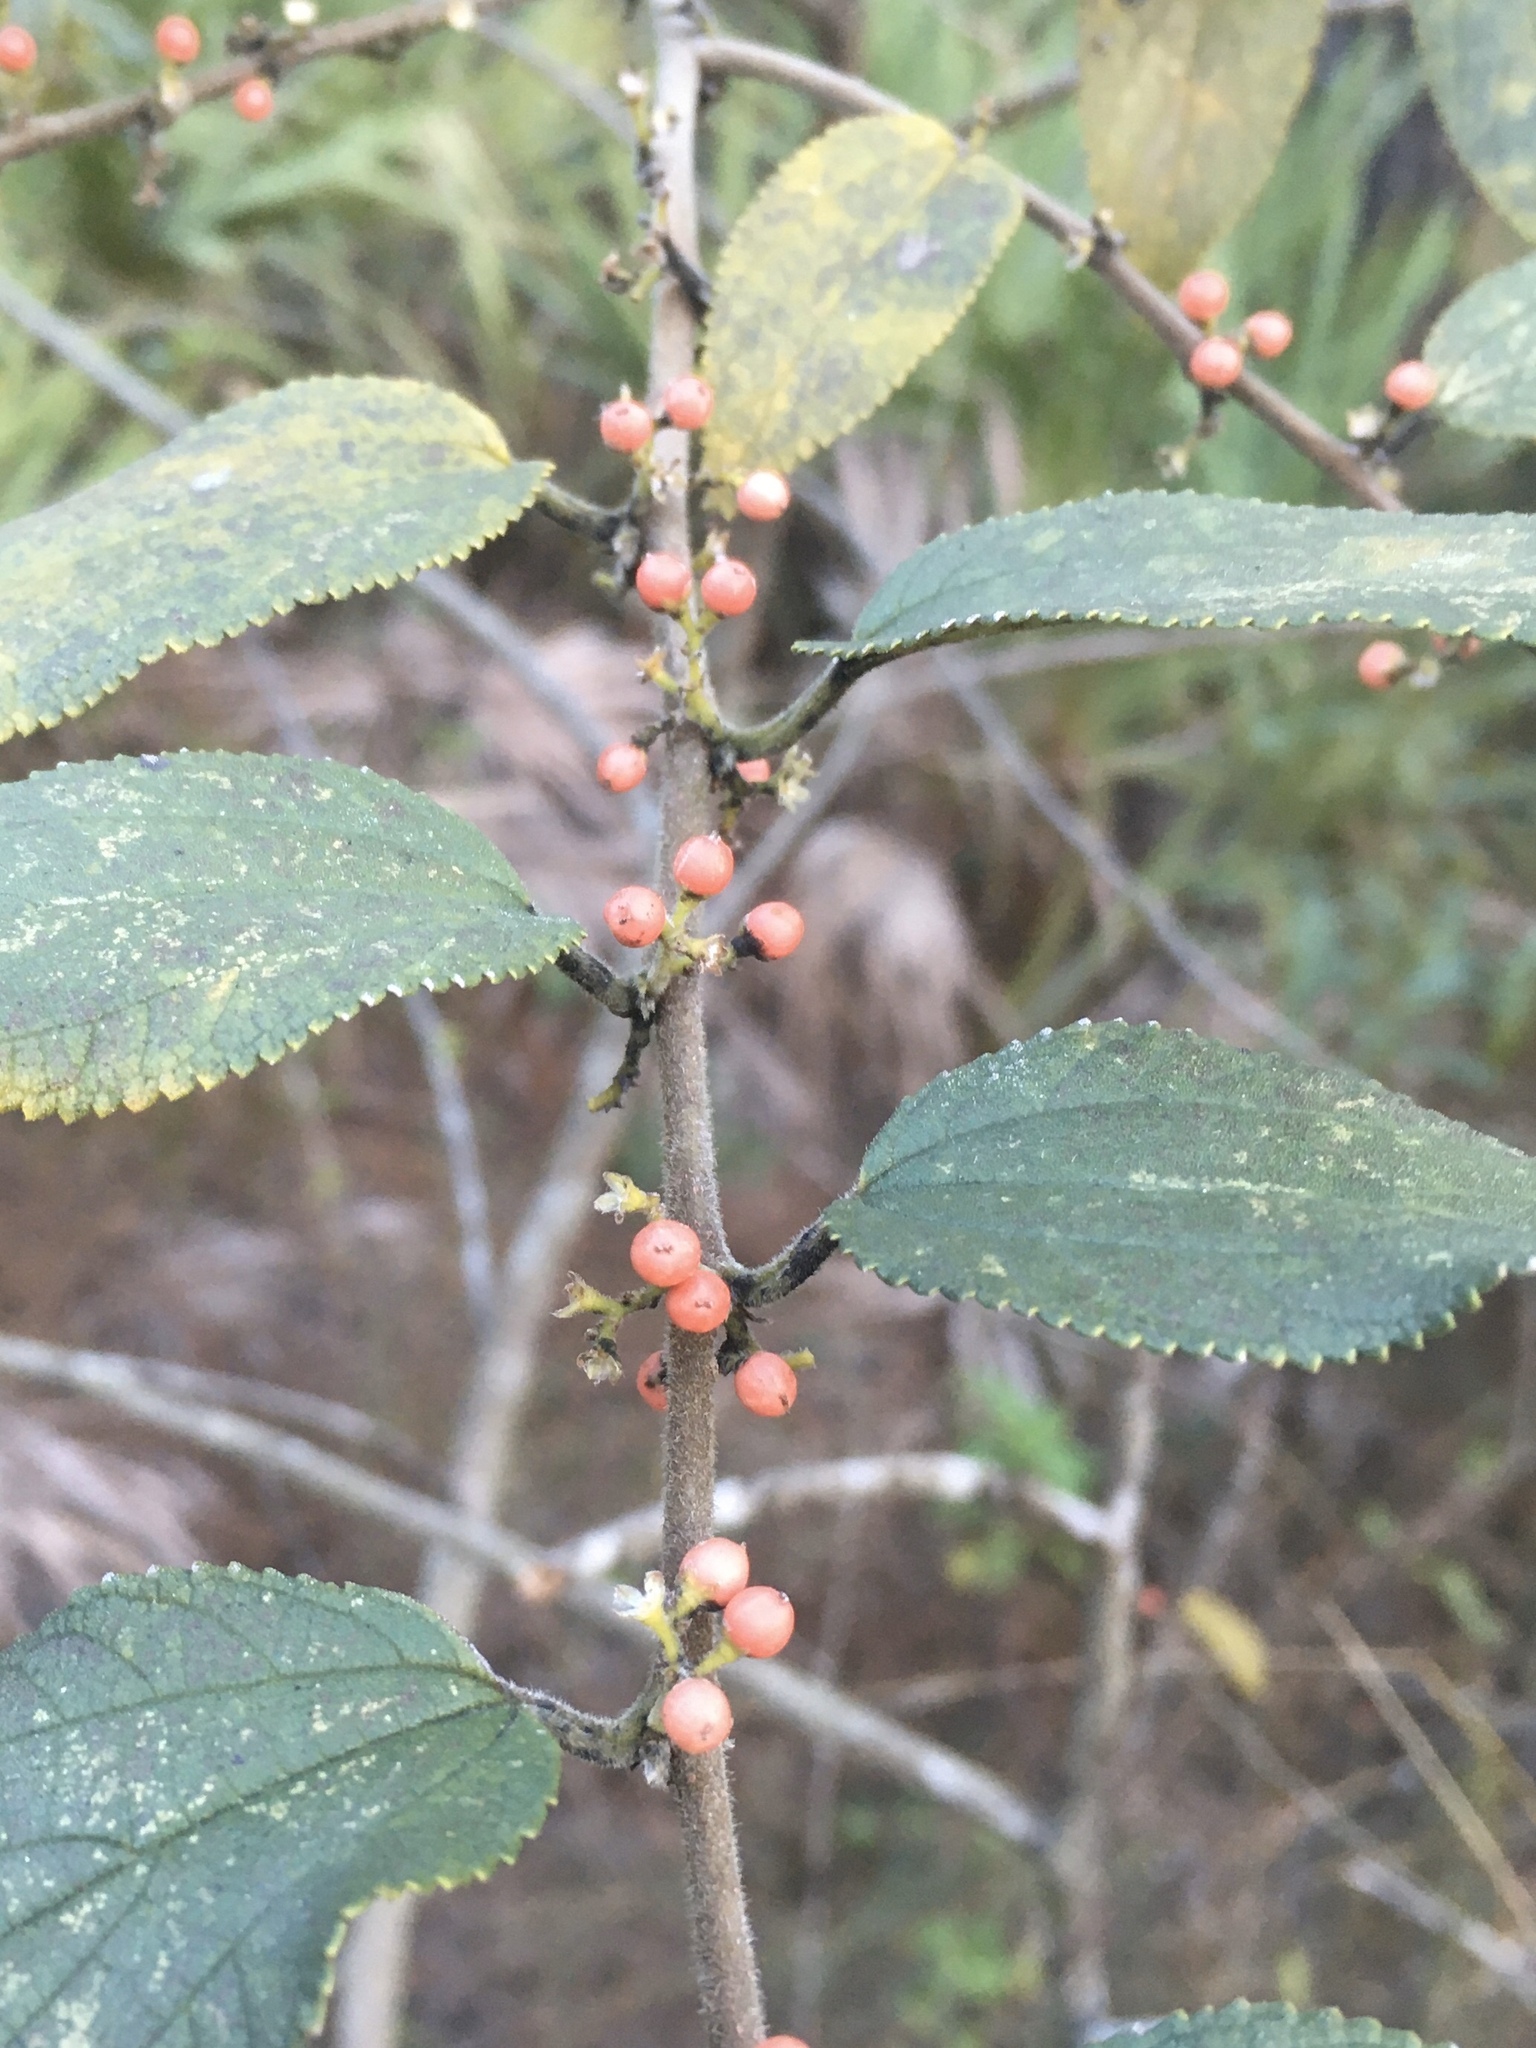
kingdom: Plantae
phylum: Tracheophyta
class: Magnoliopsida
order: Rosales
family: Cannabaceae
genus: Trema
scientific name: Trema micranthum
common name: Jamaican nettletree
